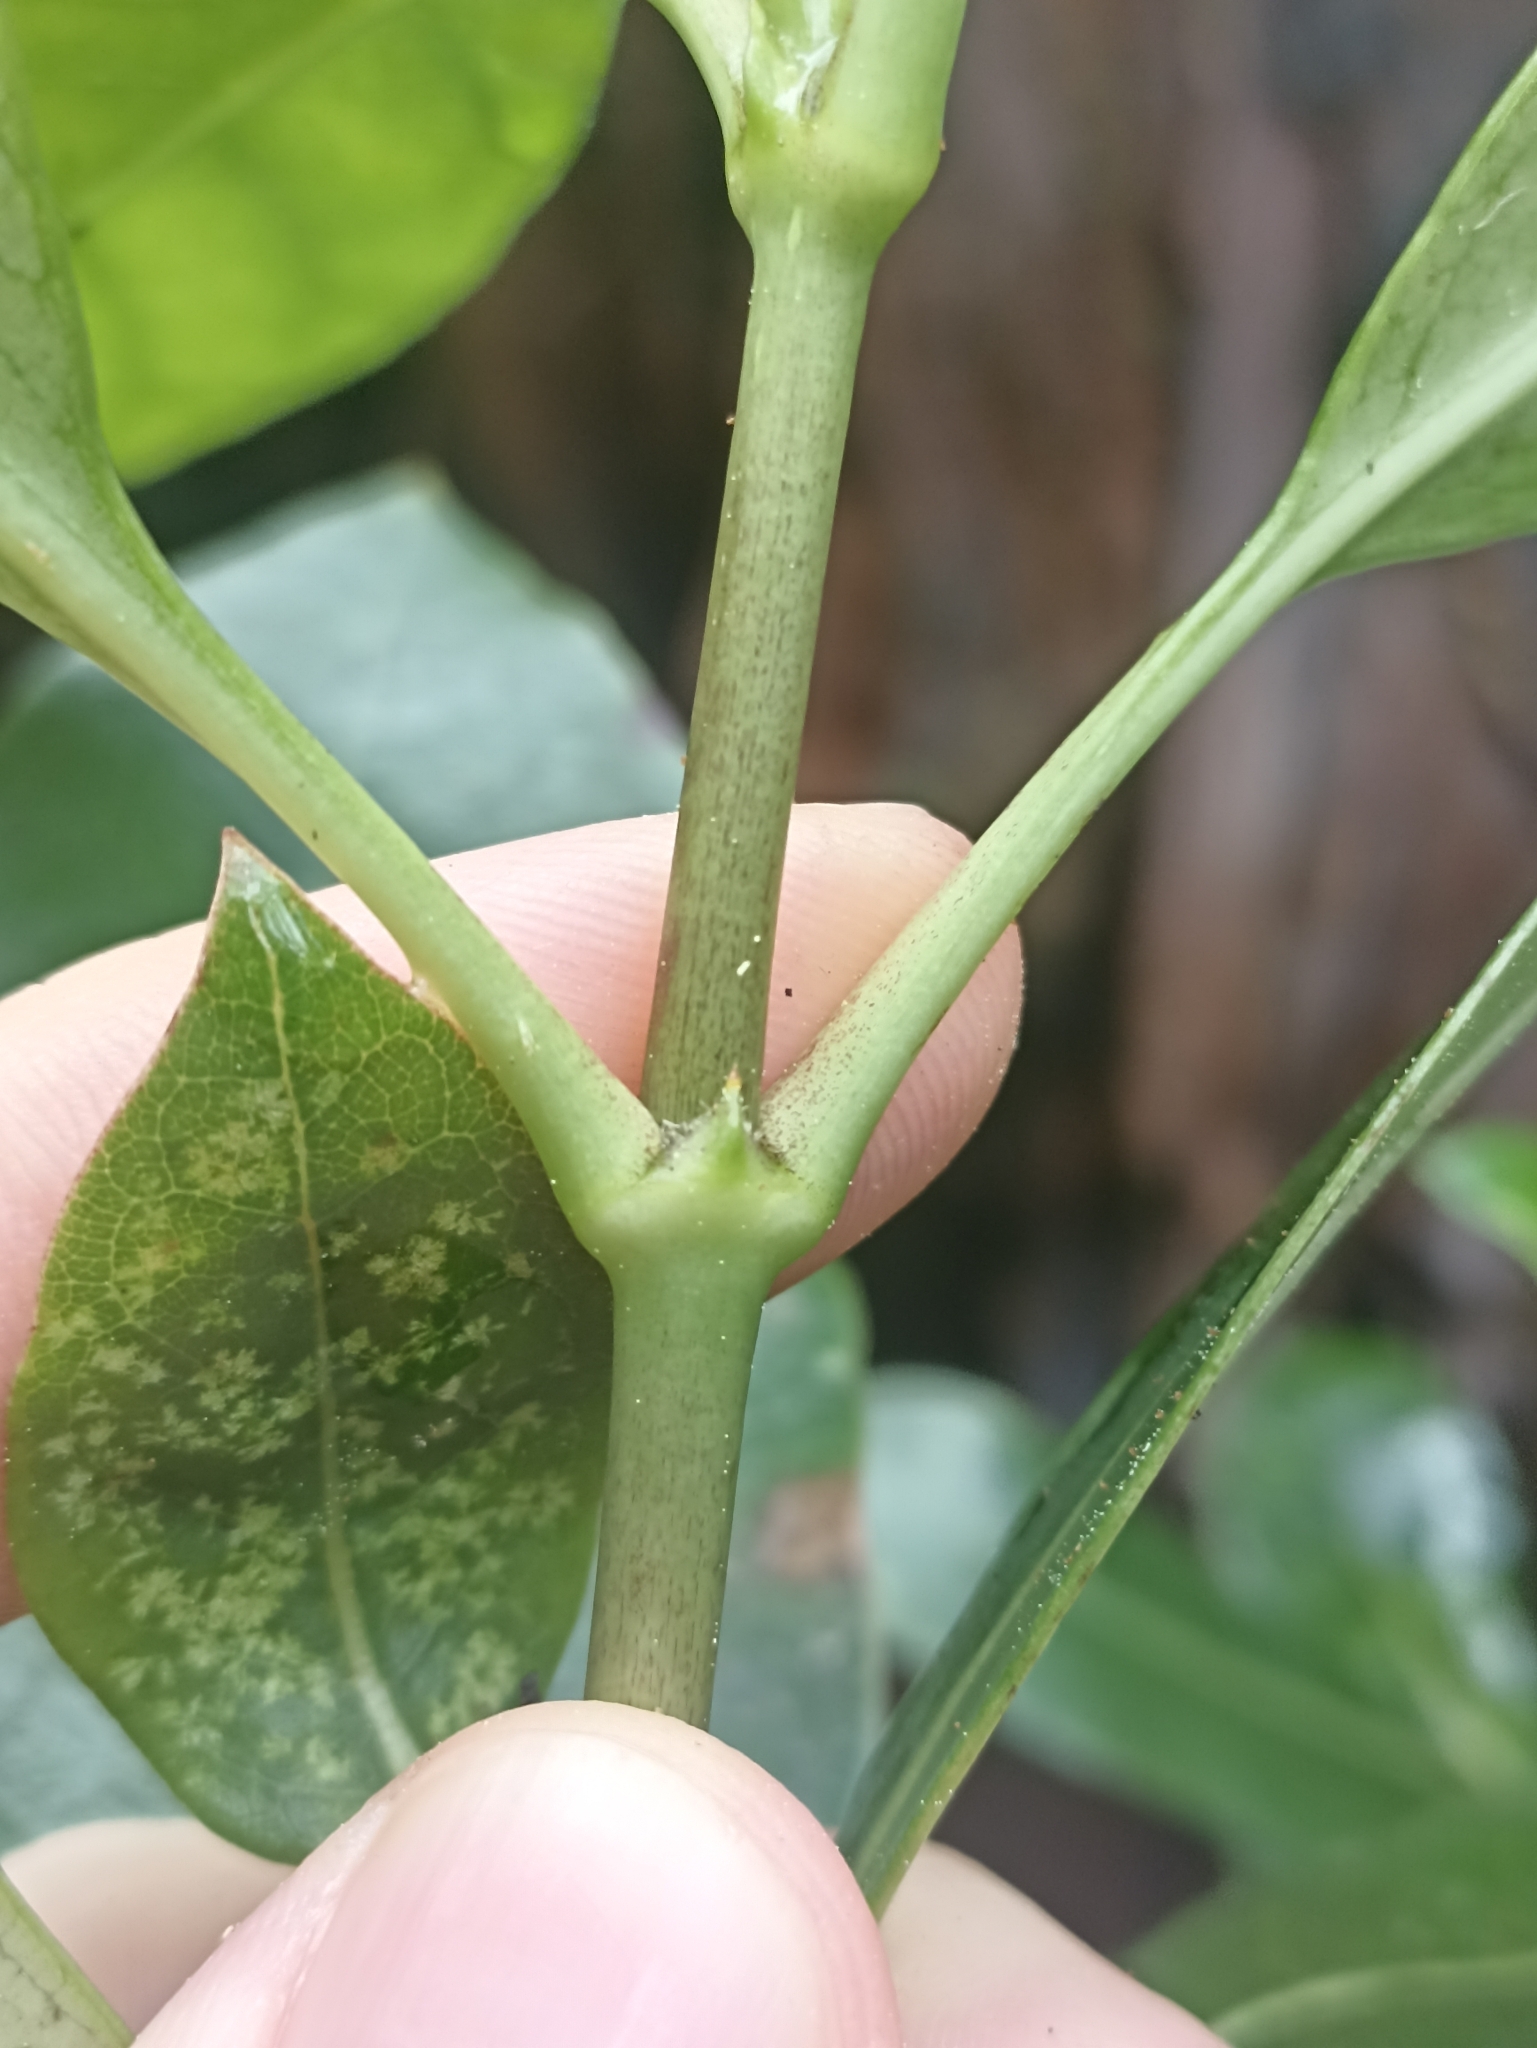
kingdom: Plantae
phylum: Tracheophyta
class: Magnoliopsida
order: Gentianales
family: Rubiaceae
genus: Coprosma
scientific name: Coprosma lucida
